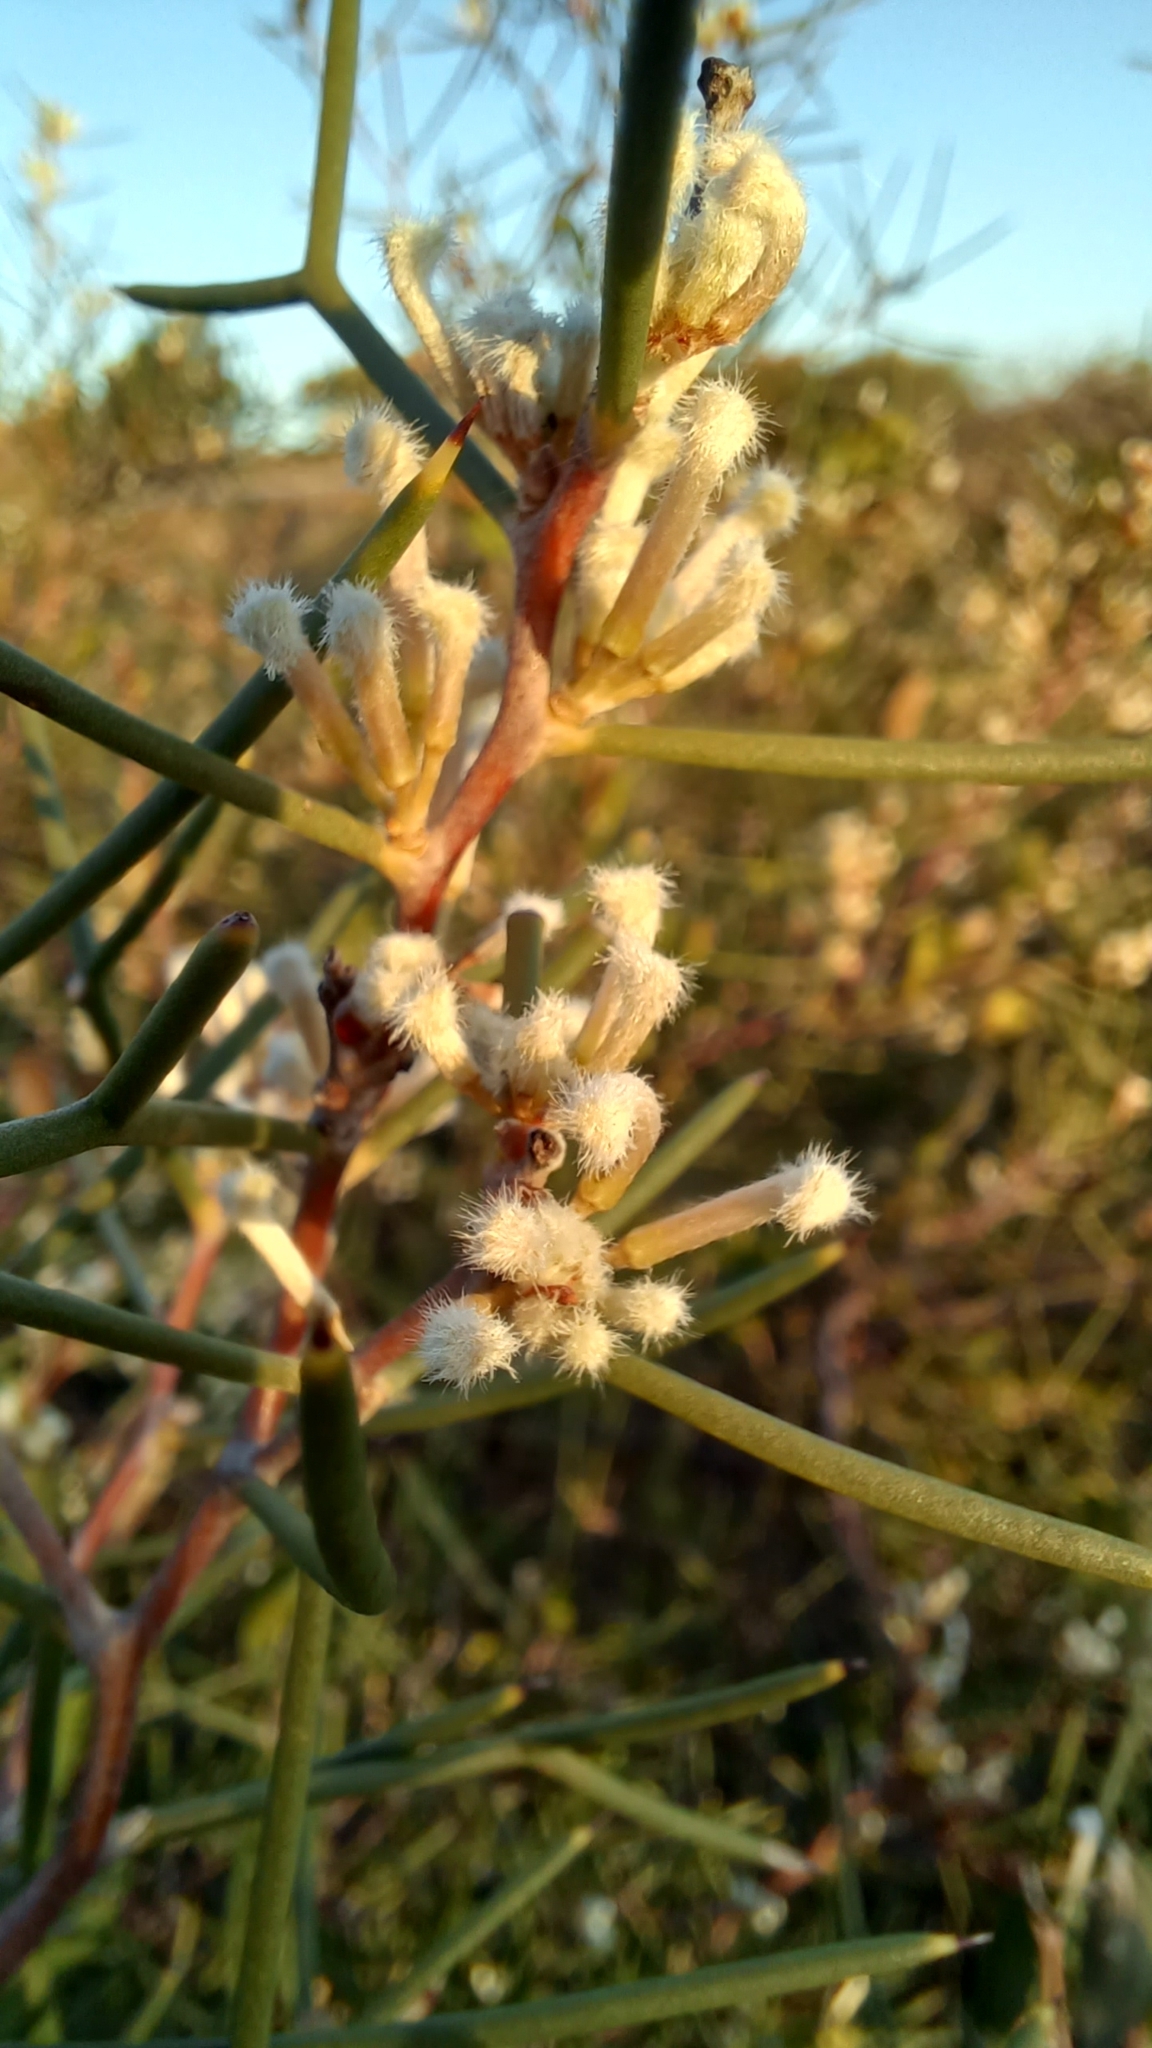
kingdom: Plantae
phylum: Tracheophyta
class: Magnoliopsida
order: Proteales
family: Proteaceae
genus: Hakea
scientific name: Hakea trifurcata
